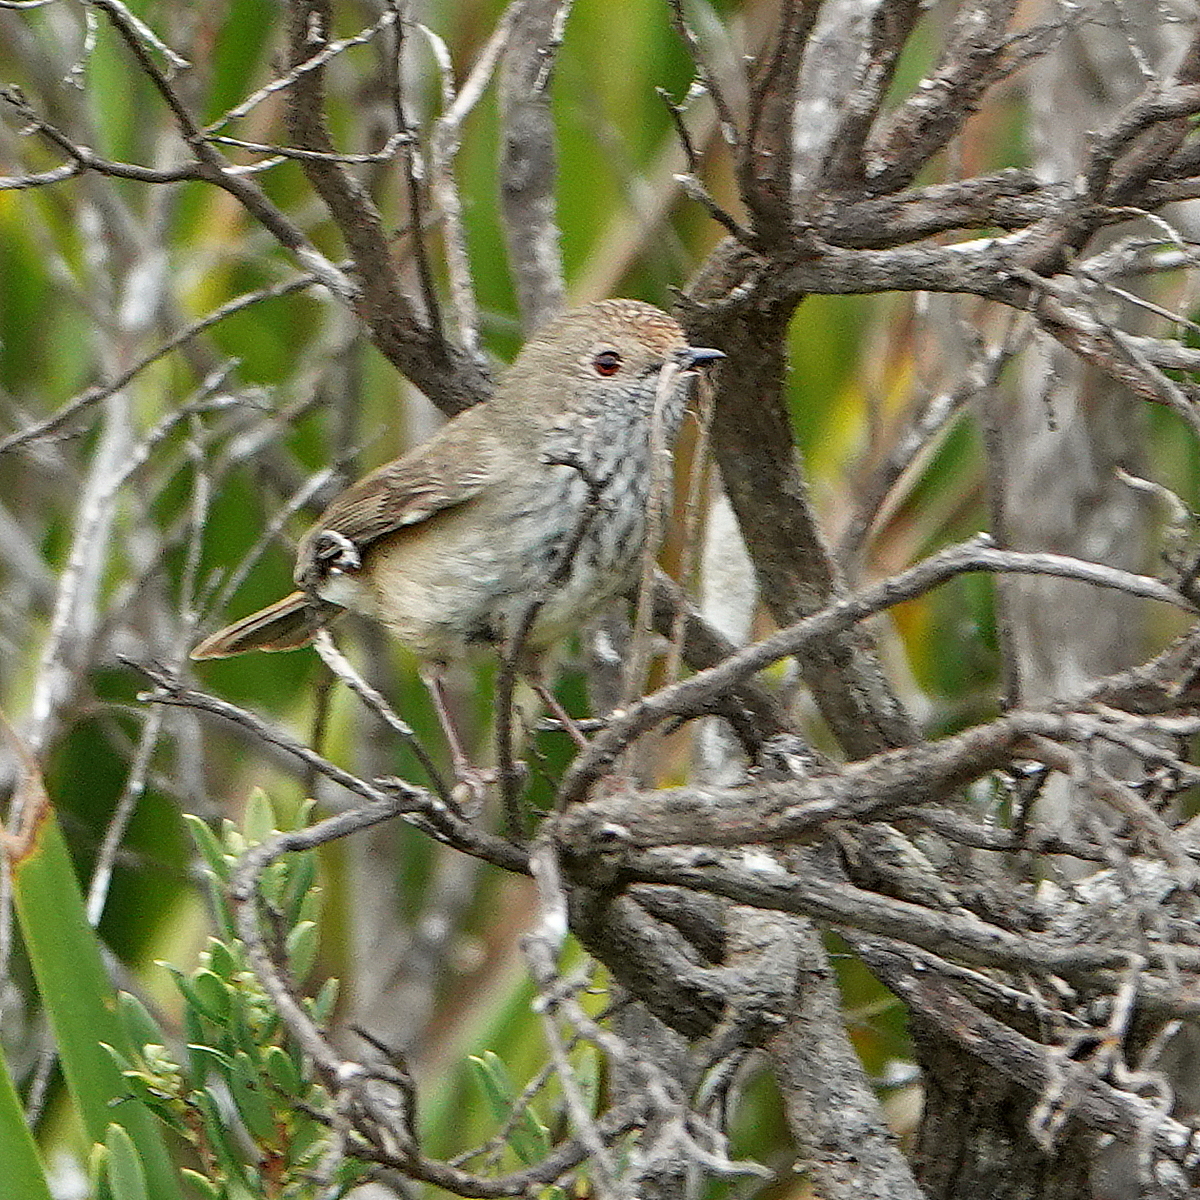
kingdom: Animalia
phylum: Chordata
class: Aves
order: Passeriformes
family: Acanthizidae
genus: Acanthiza
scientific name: Acanthiza pusilla
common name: Brown thornbill
